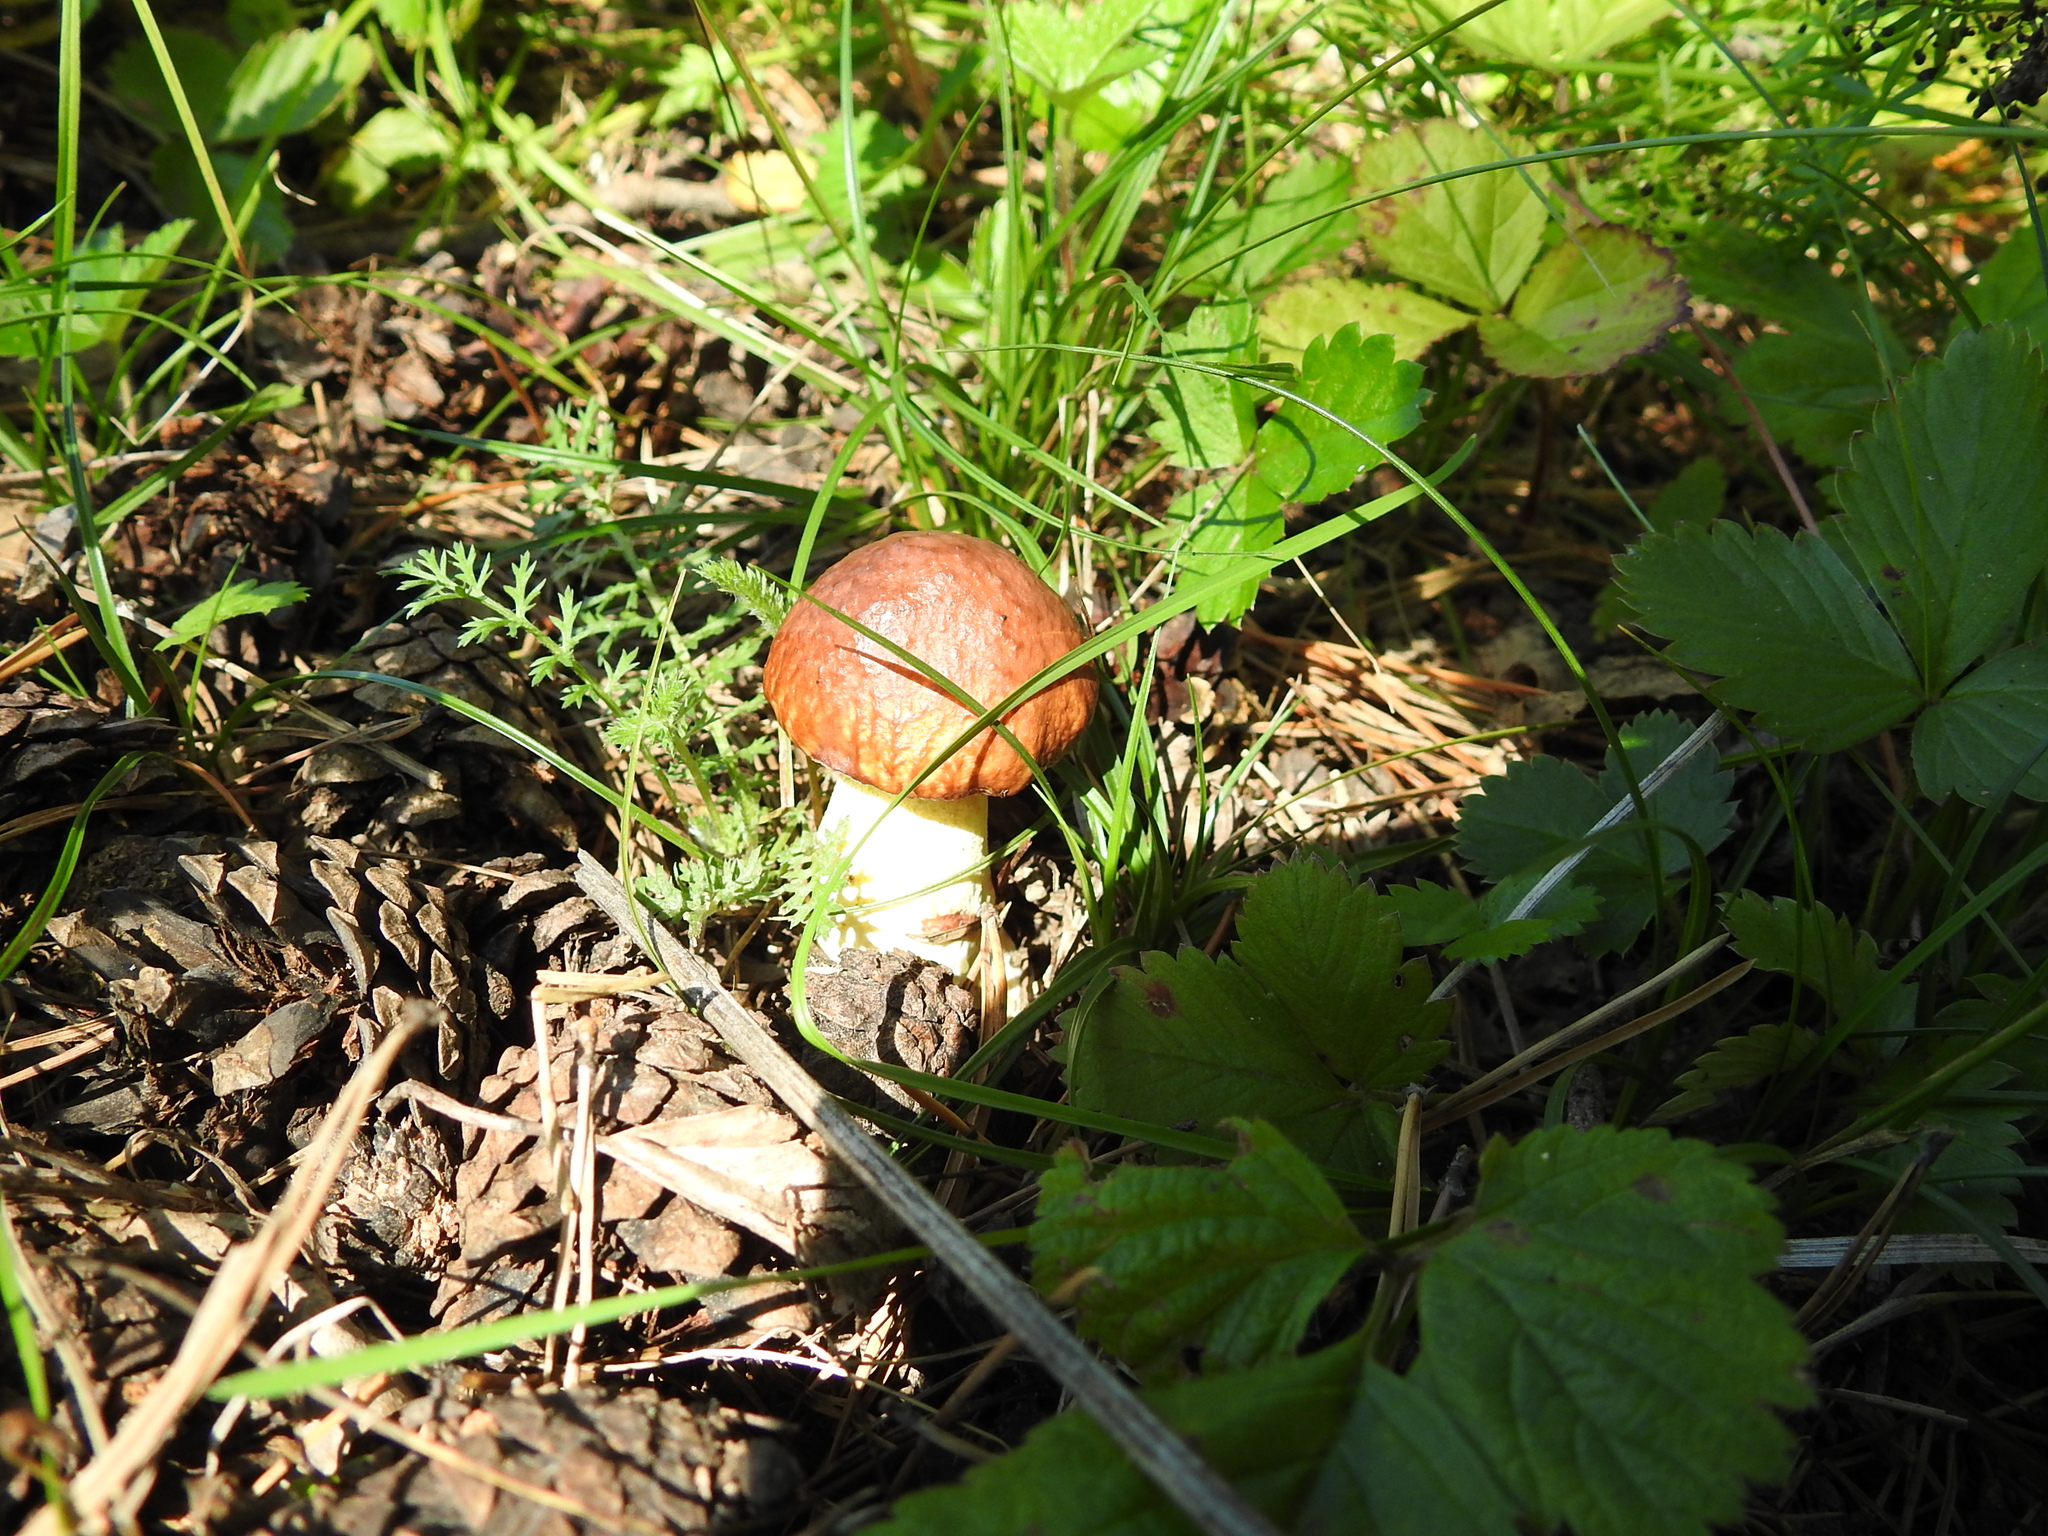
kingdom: Fungi
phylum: Basidiomycota
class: Agaricomycetes
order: Boletales
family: Boletaceae
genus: Leccinum
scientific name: Leccinum albostipitatum
